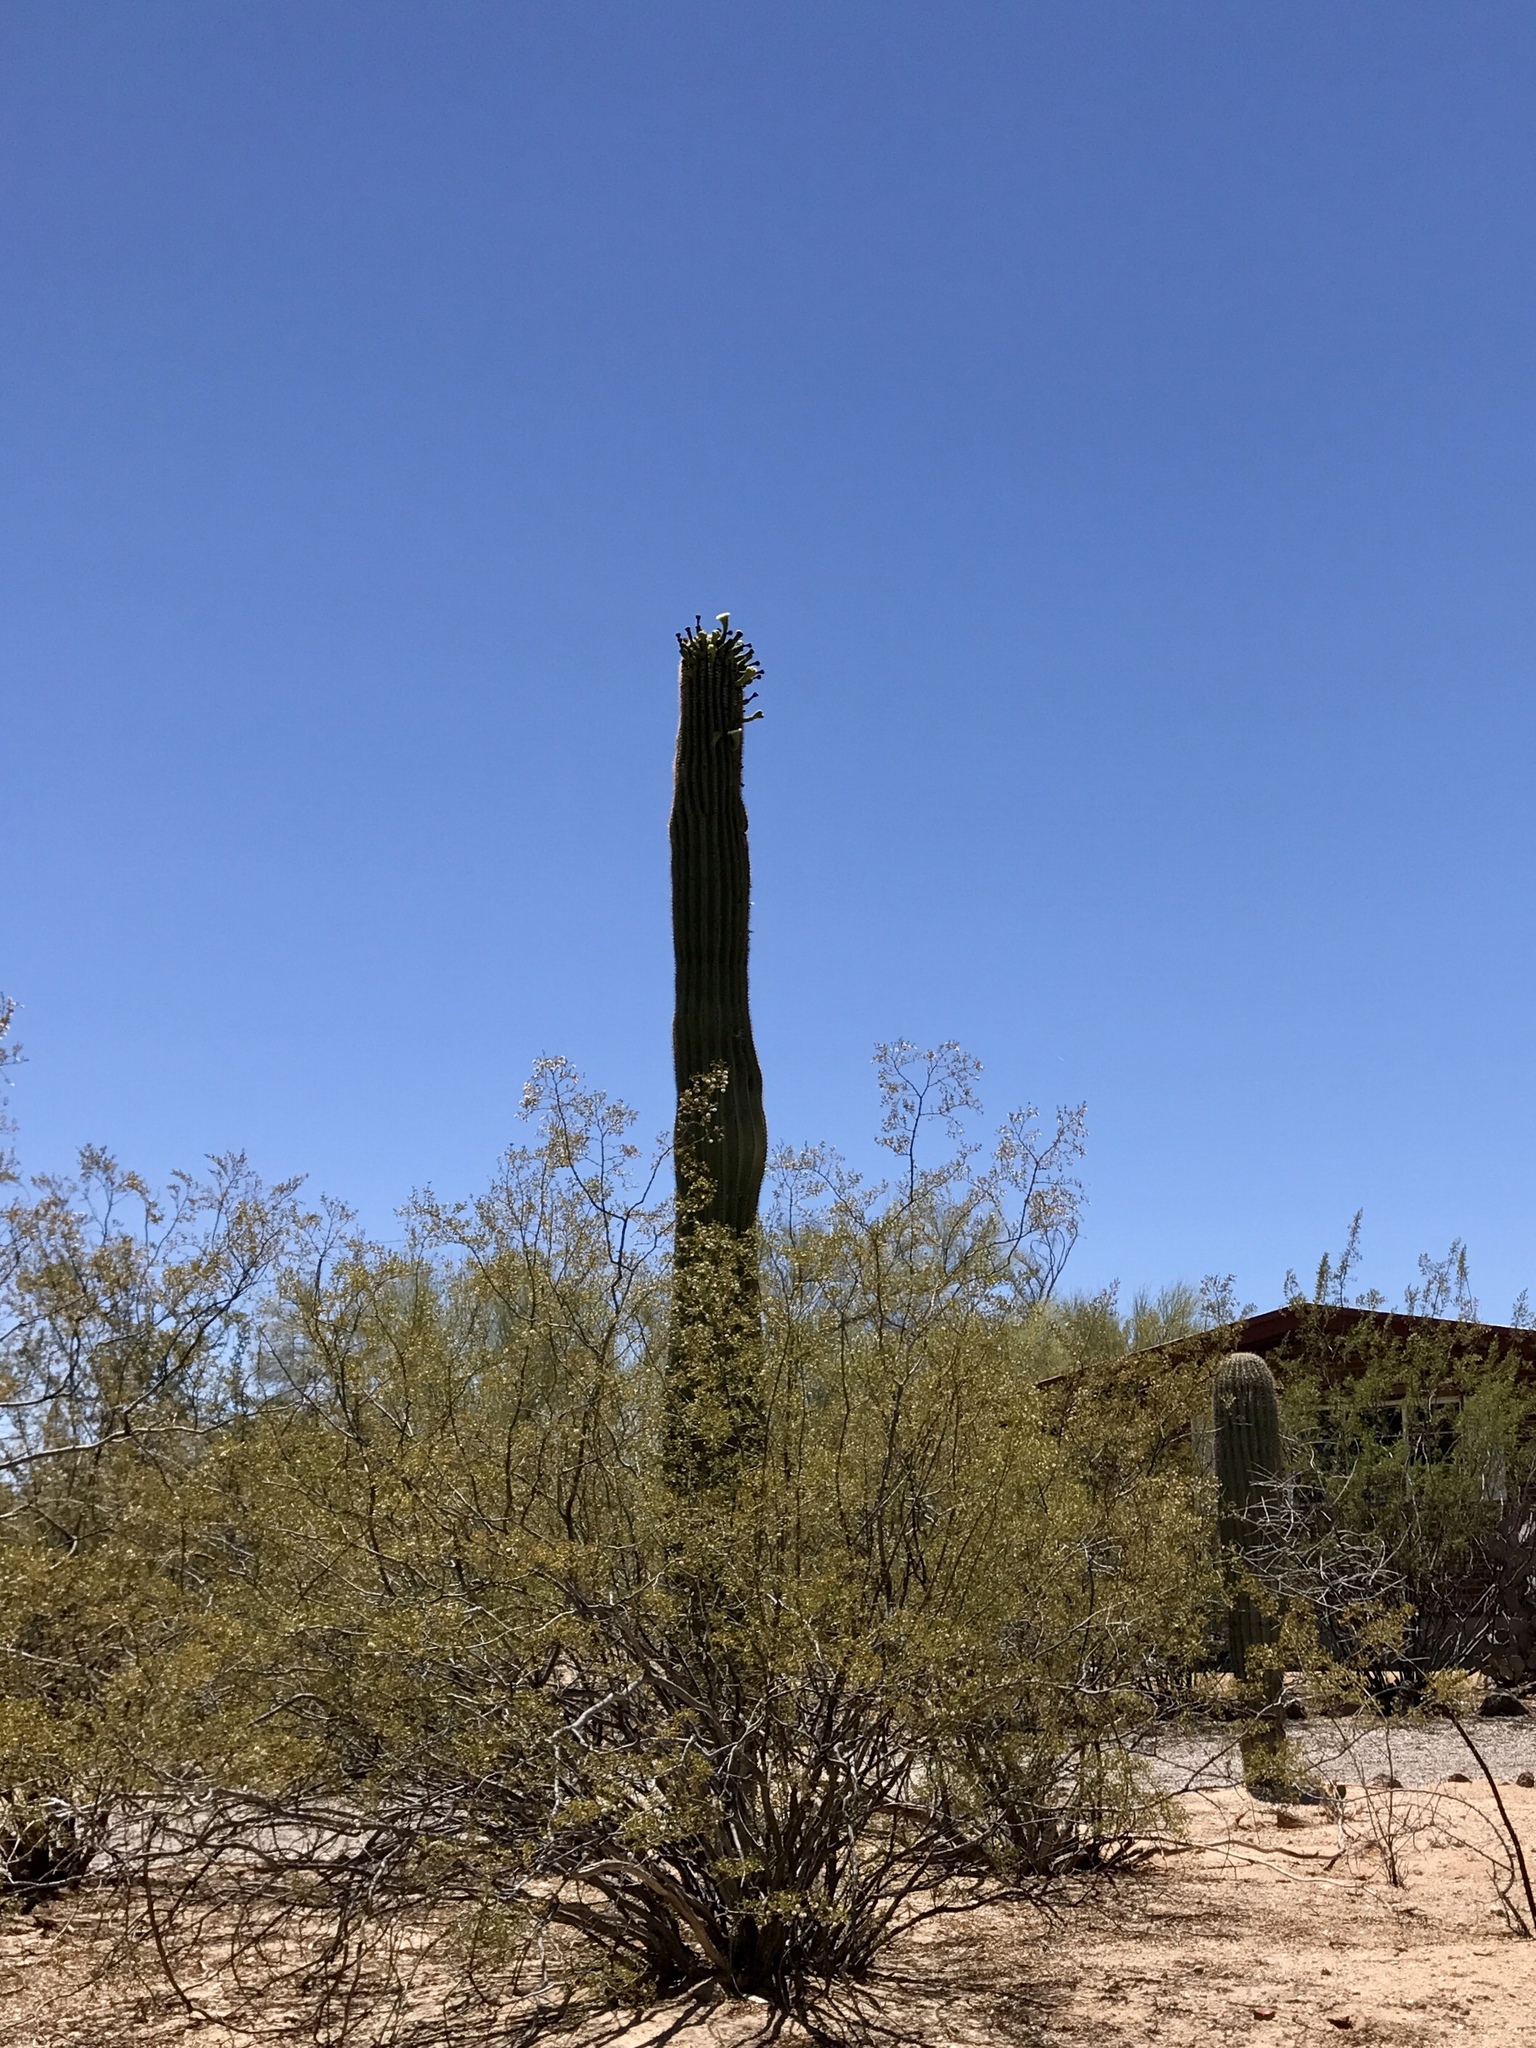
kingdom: Plantae
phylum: Tracheophyta
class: Magnoliopsida
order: Caryophyllales
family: Cactaceae
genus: Carnegiea
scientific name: Carnegiea gigantea
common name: Saguaro
